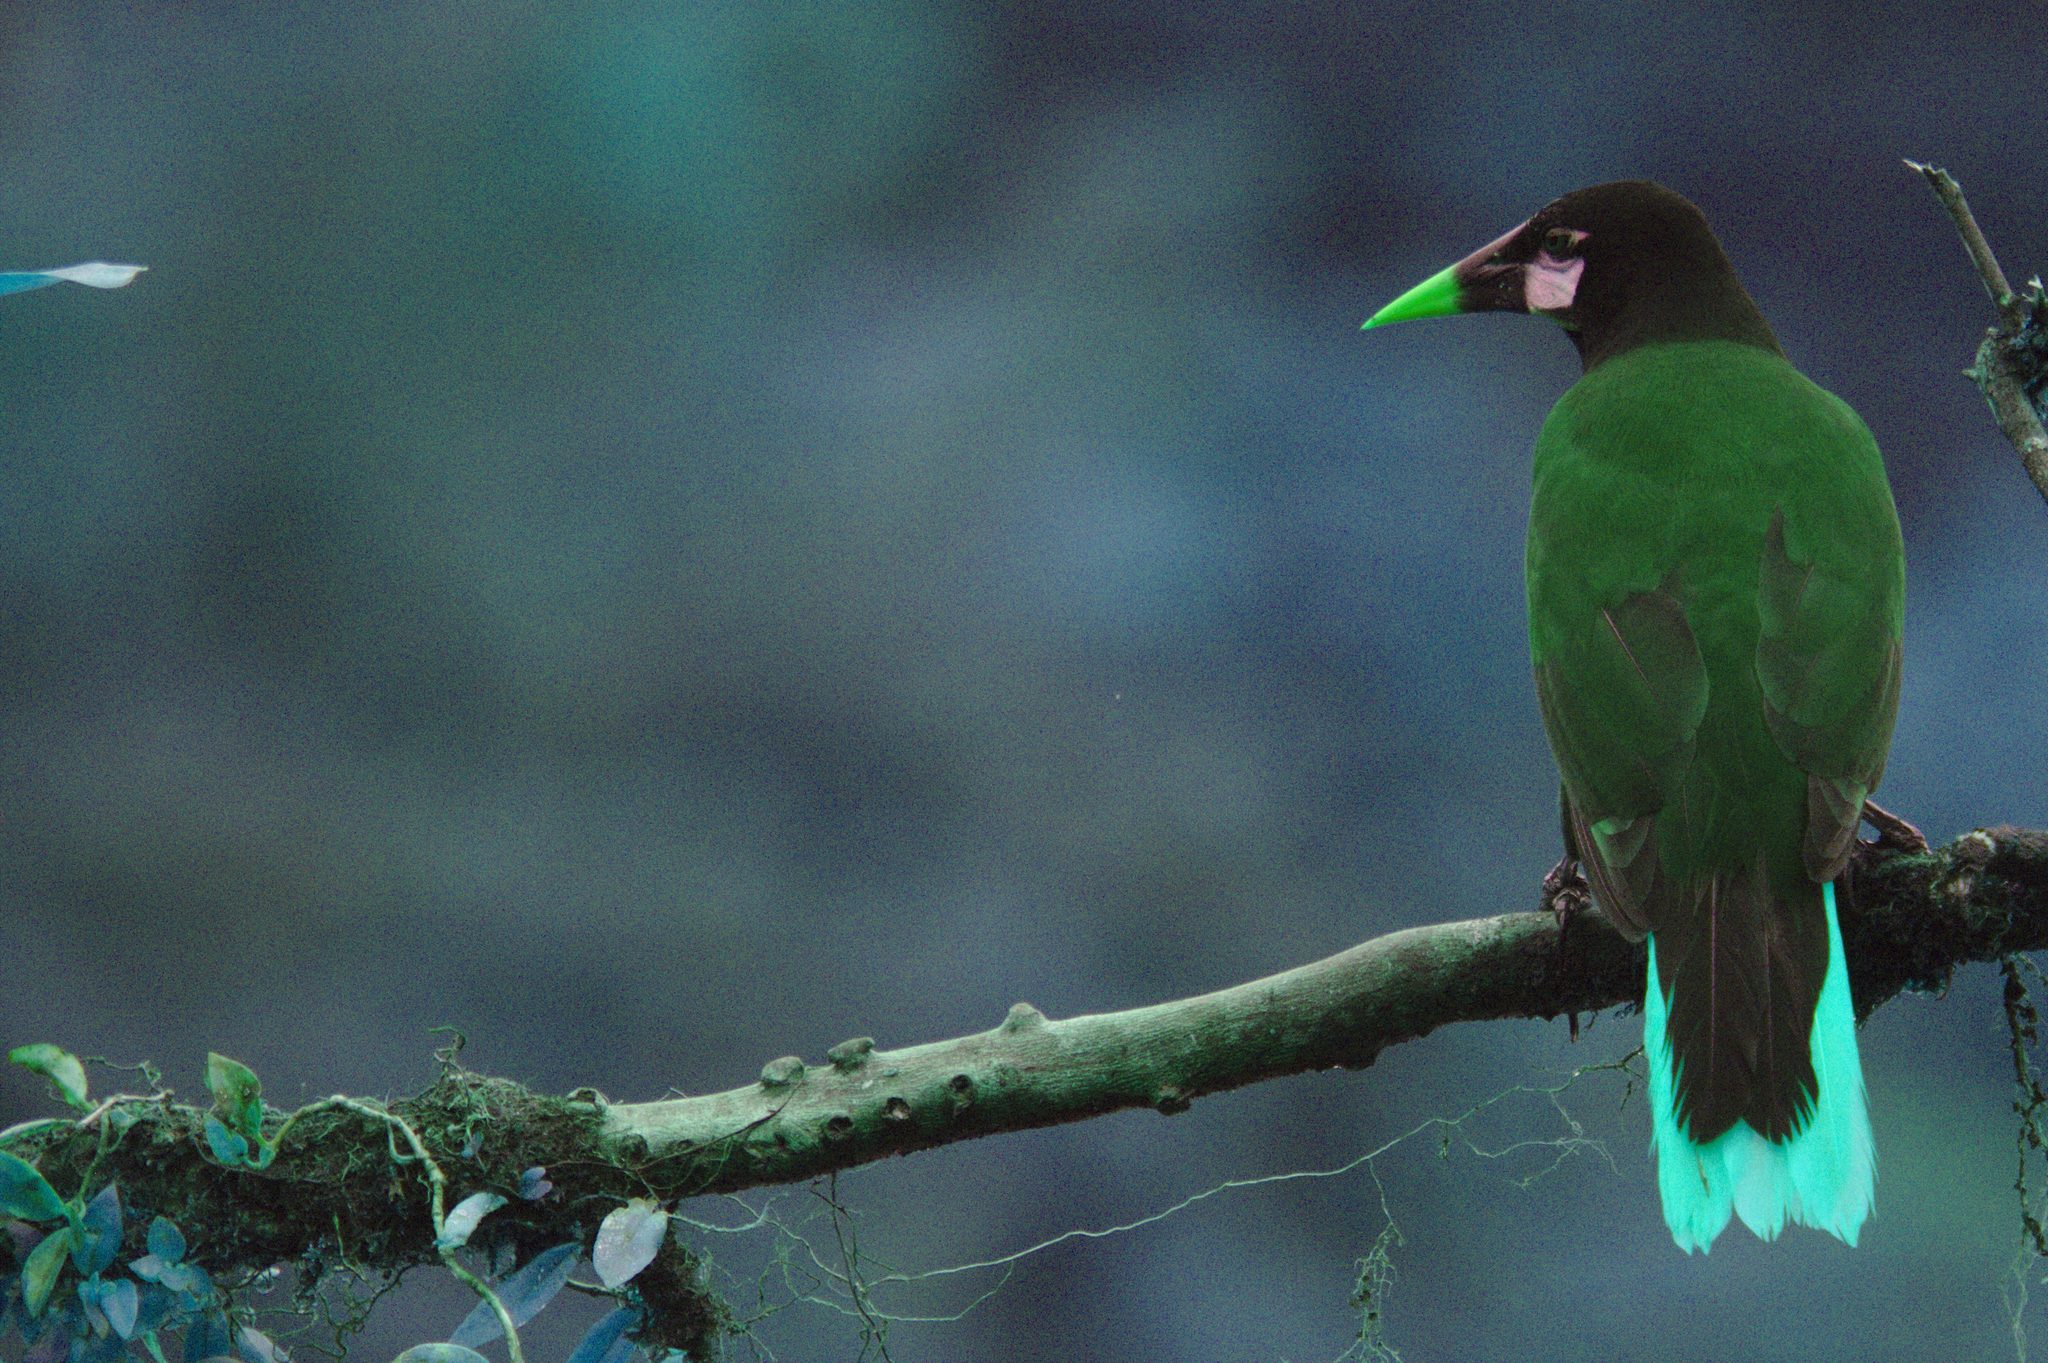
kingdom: Animalia
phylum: Chordata
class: Aves
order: Passeriformes
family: Icteridae
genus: Psarocolius
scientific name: Psarocolius montezuma
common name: Montezuma oropendola
